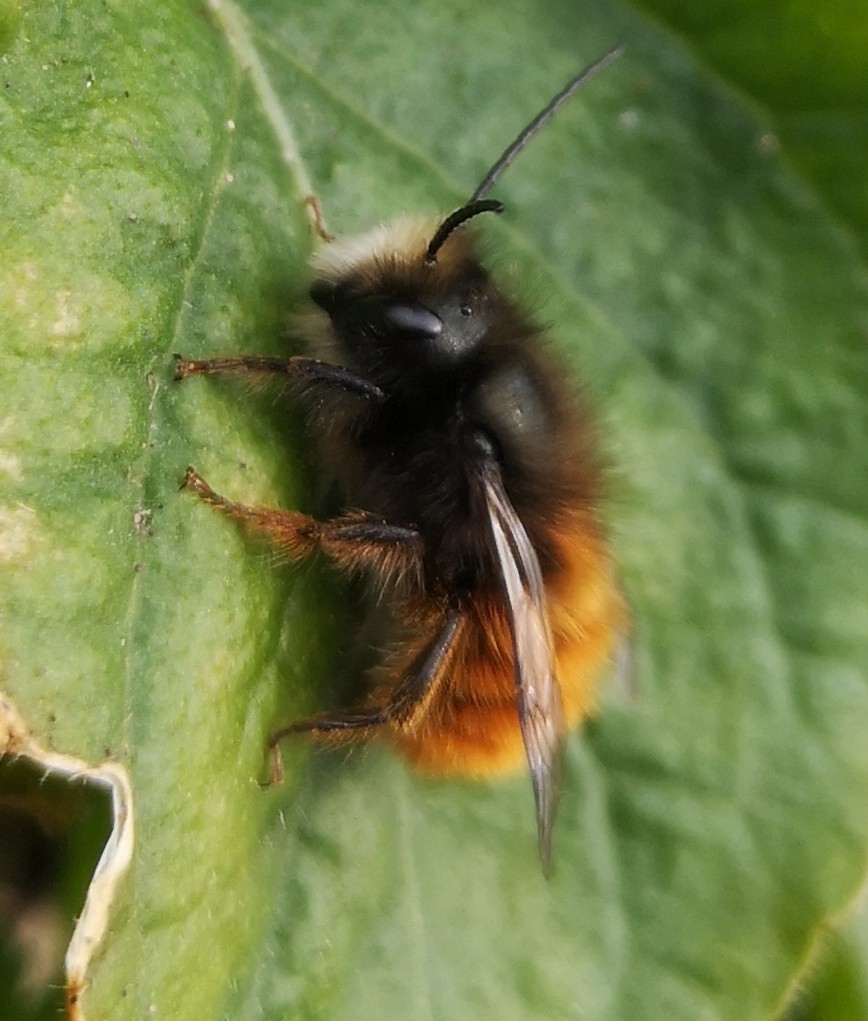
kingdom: Animalia
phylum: Arthropoda
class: Insecta
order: Hymenoptera
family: Megachilidae
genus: Osmia
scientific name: Osmia cornuta
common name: Mason bee
